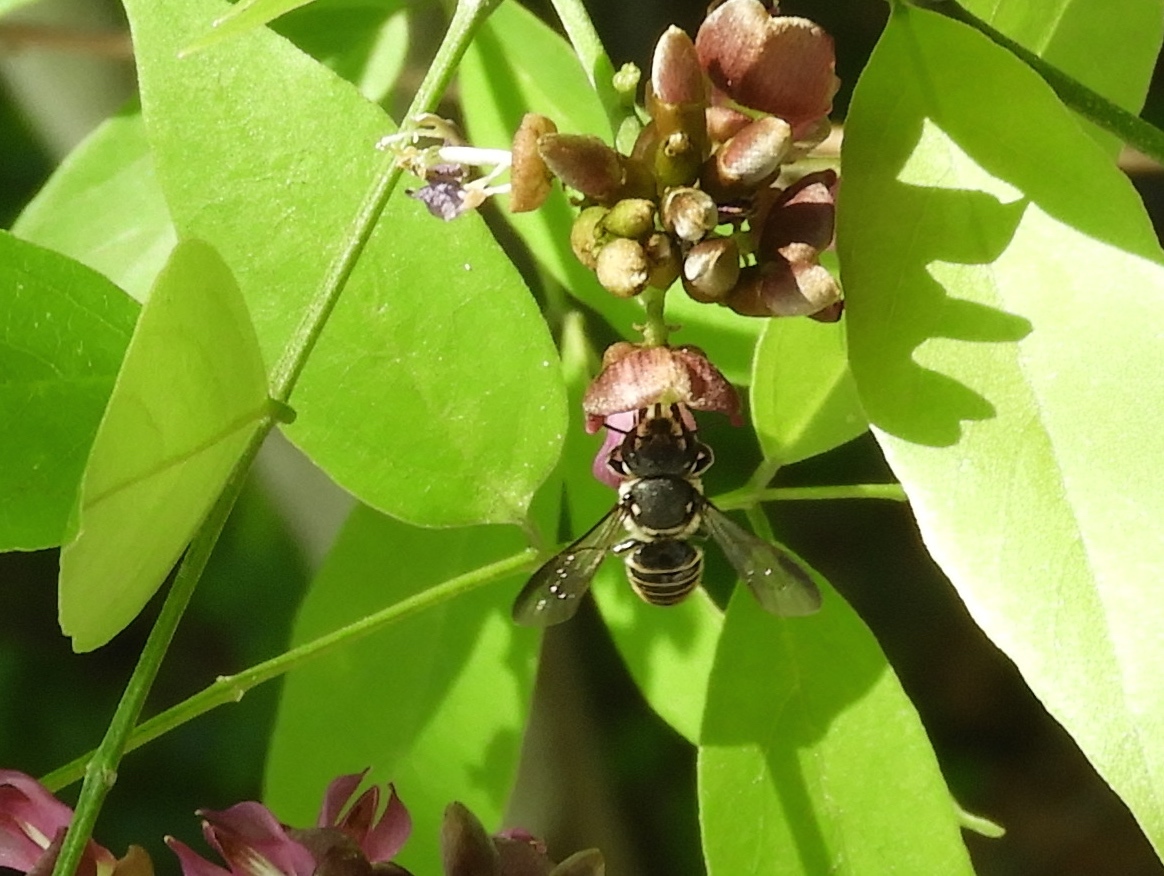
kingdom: Animalia
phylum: Arthropoda
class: Insecta
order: Hymenoptera
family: Megachilidae
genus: Megachile
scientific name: Megachile
